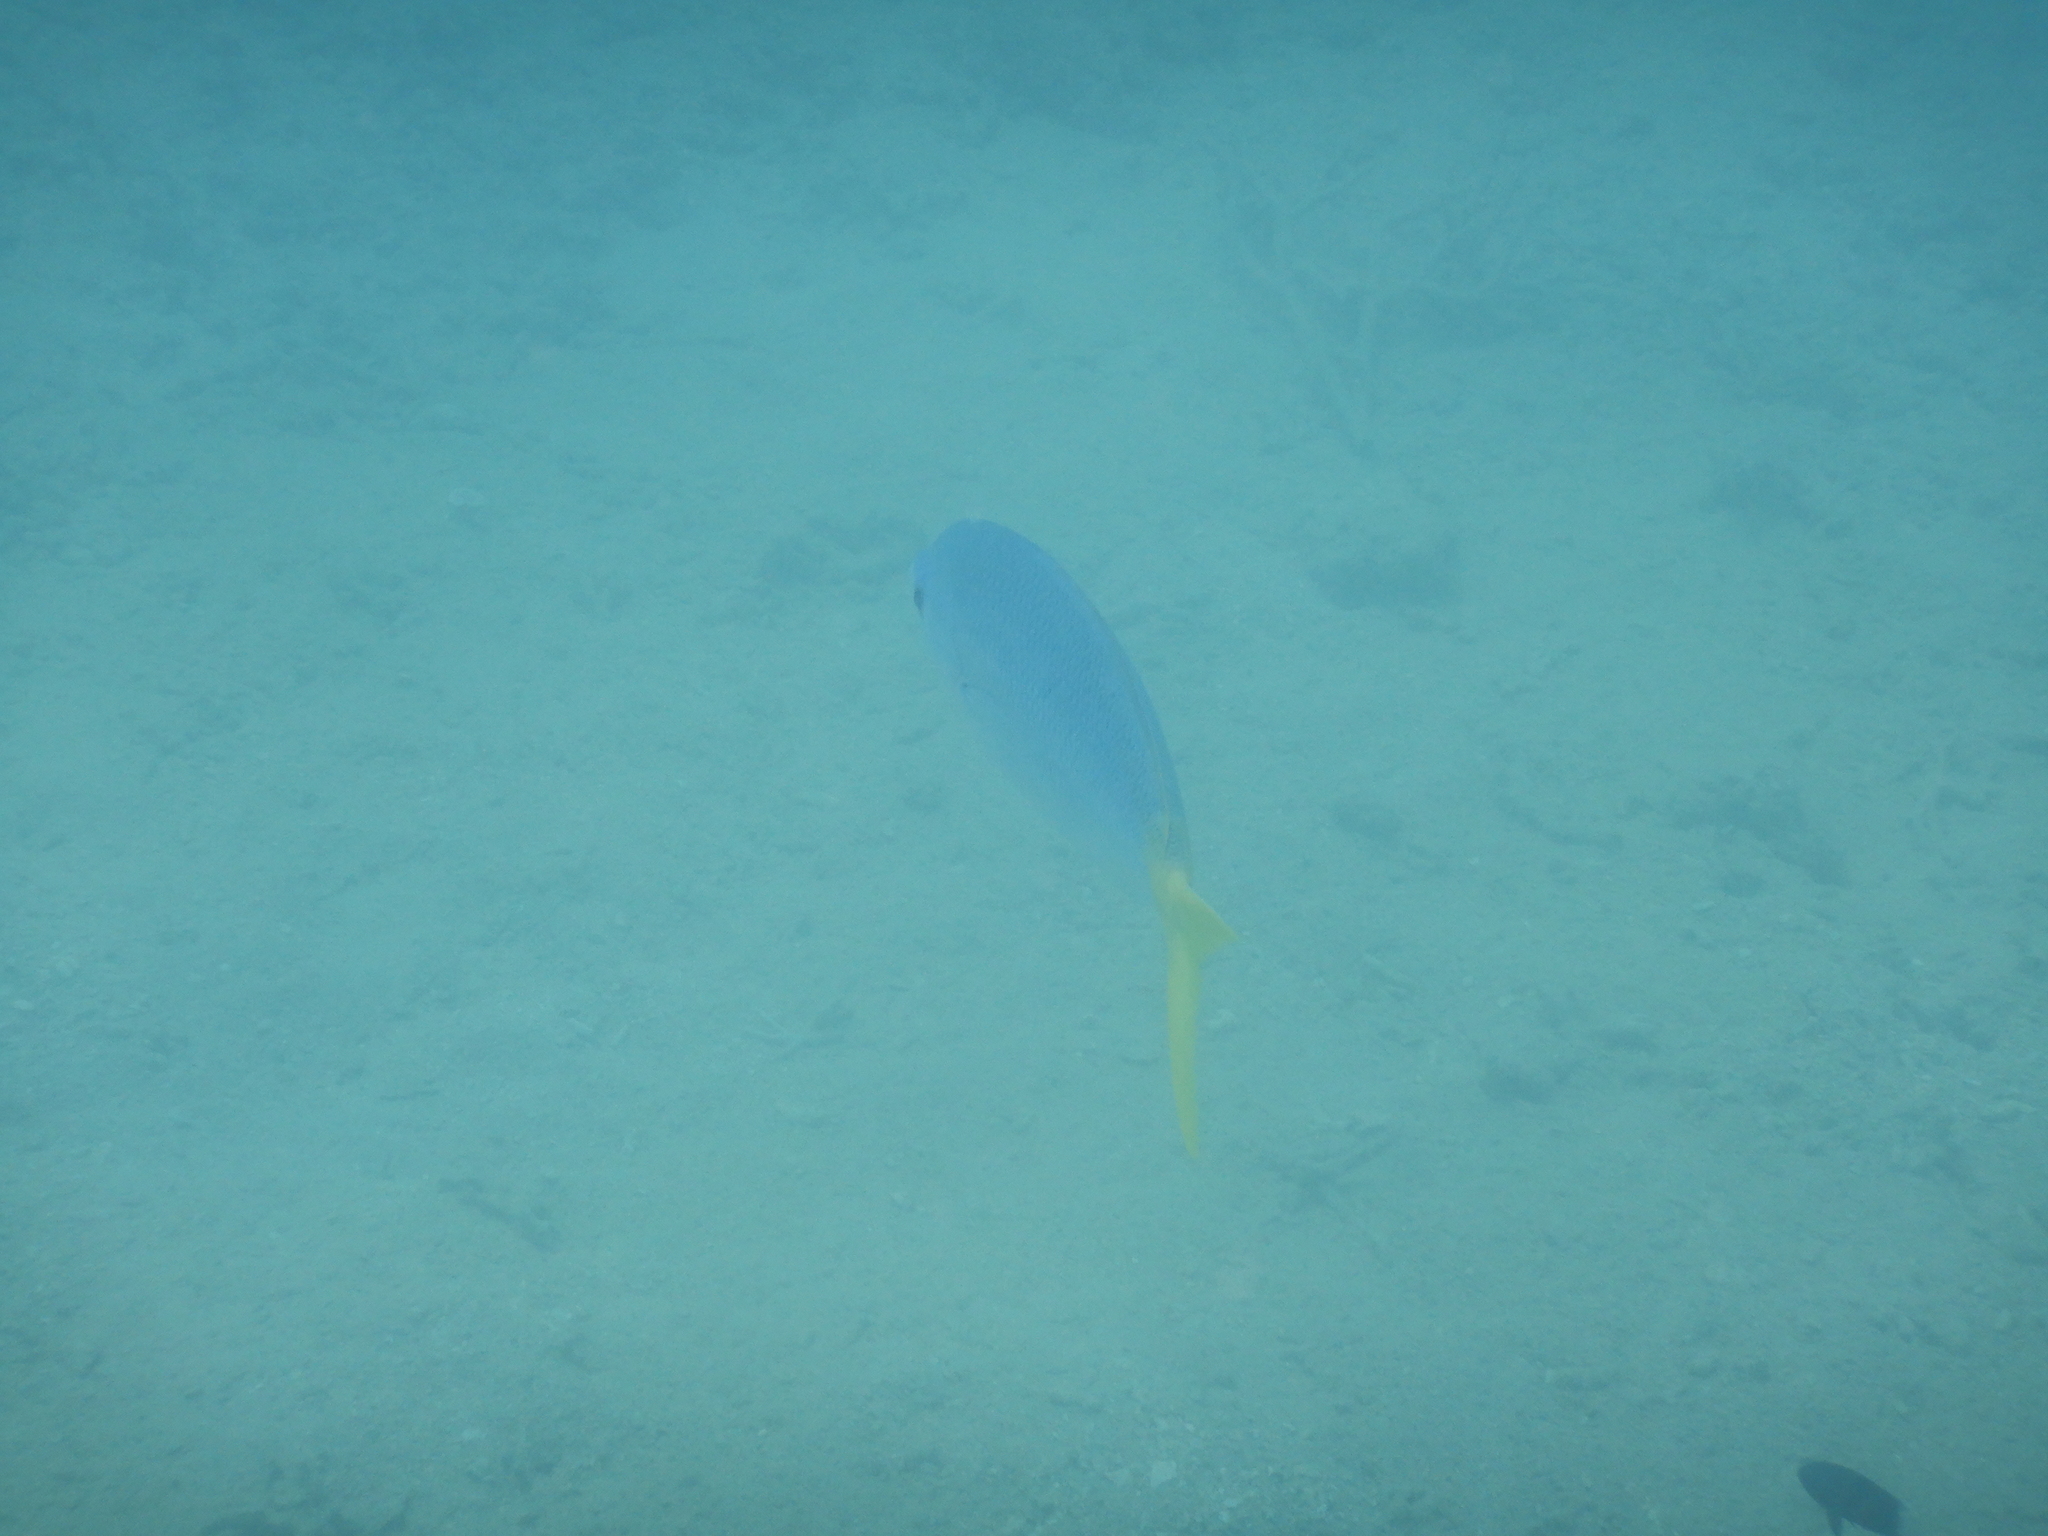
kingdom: Animalia
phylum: Chordata
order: Perciformes
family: Caesionidae
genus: Caesio
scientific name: Caesio cuning
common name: Red-bellied fusilier
